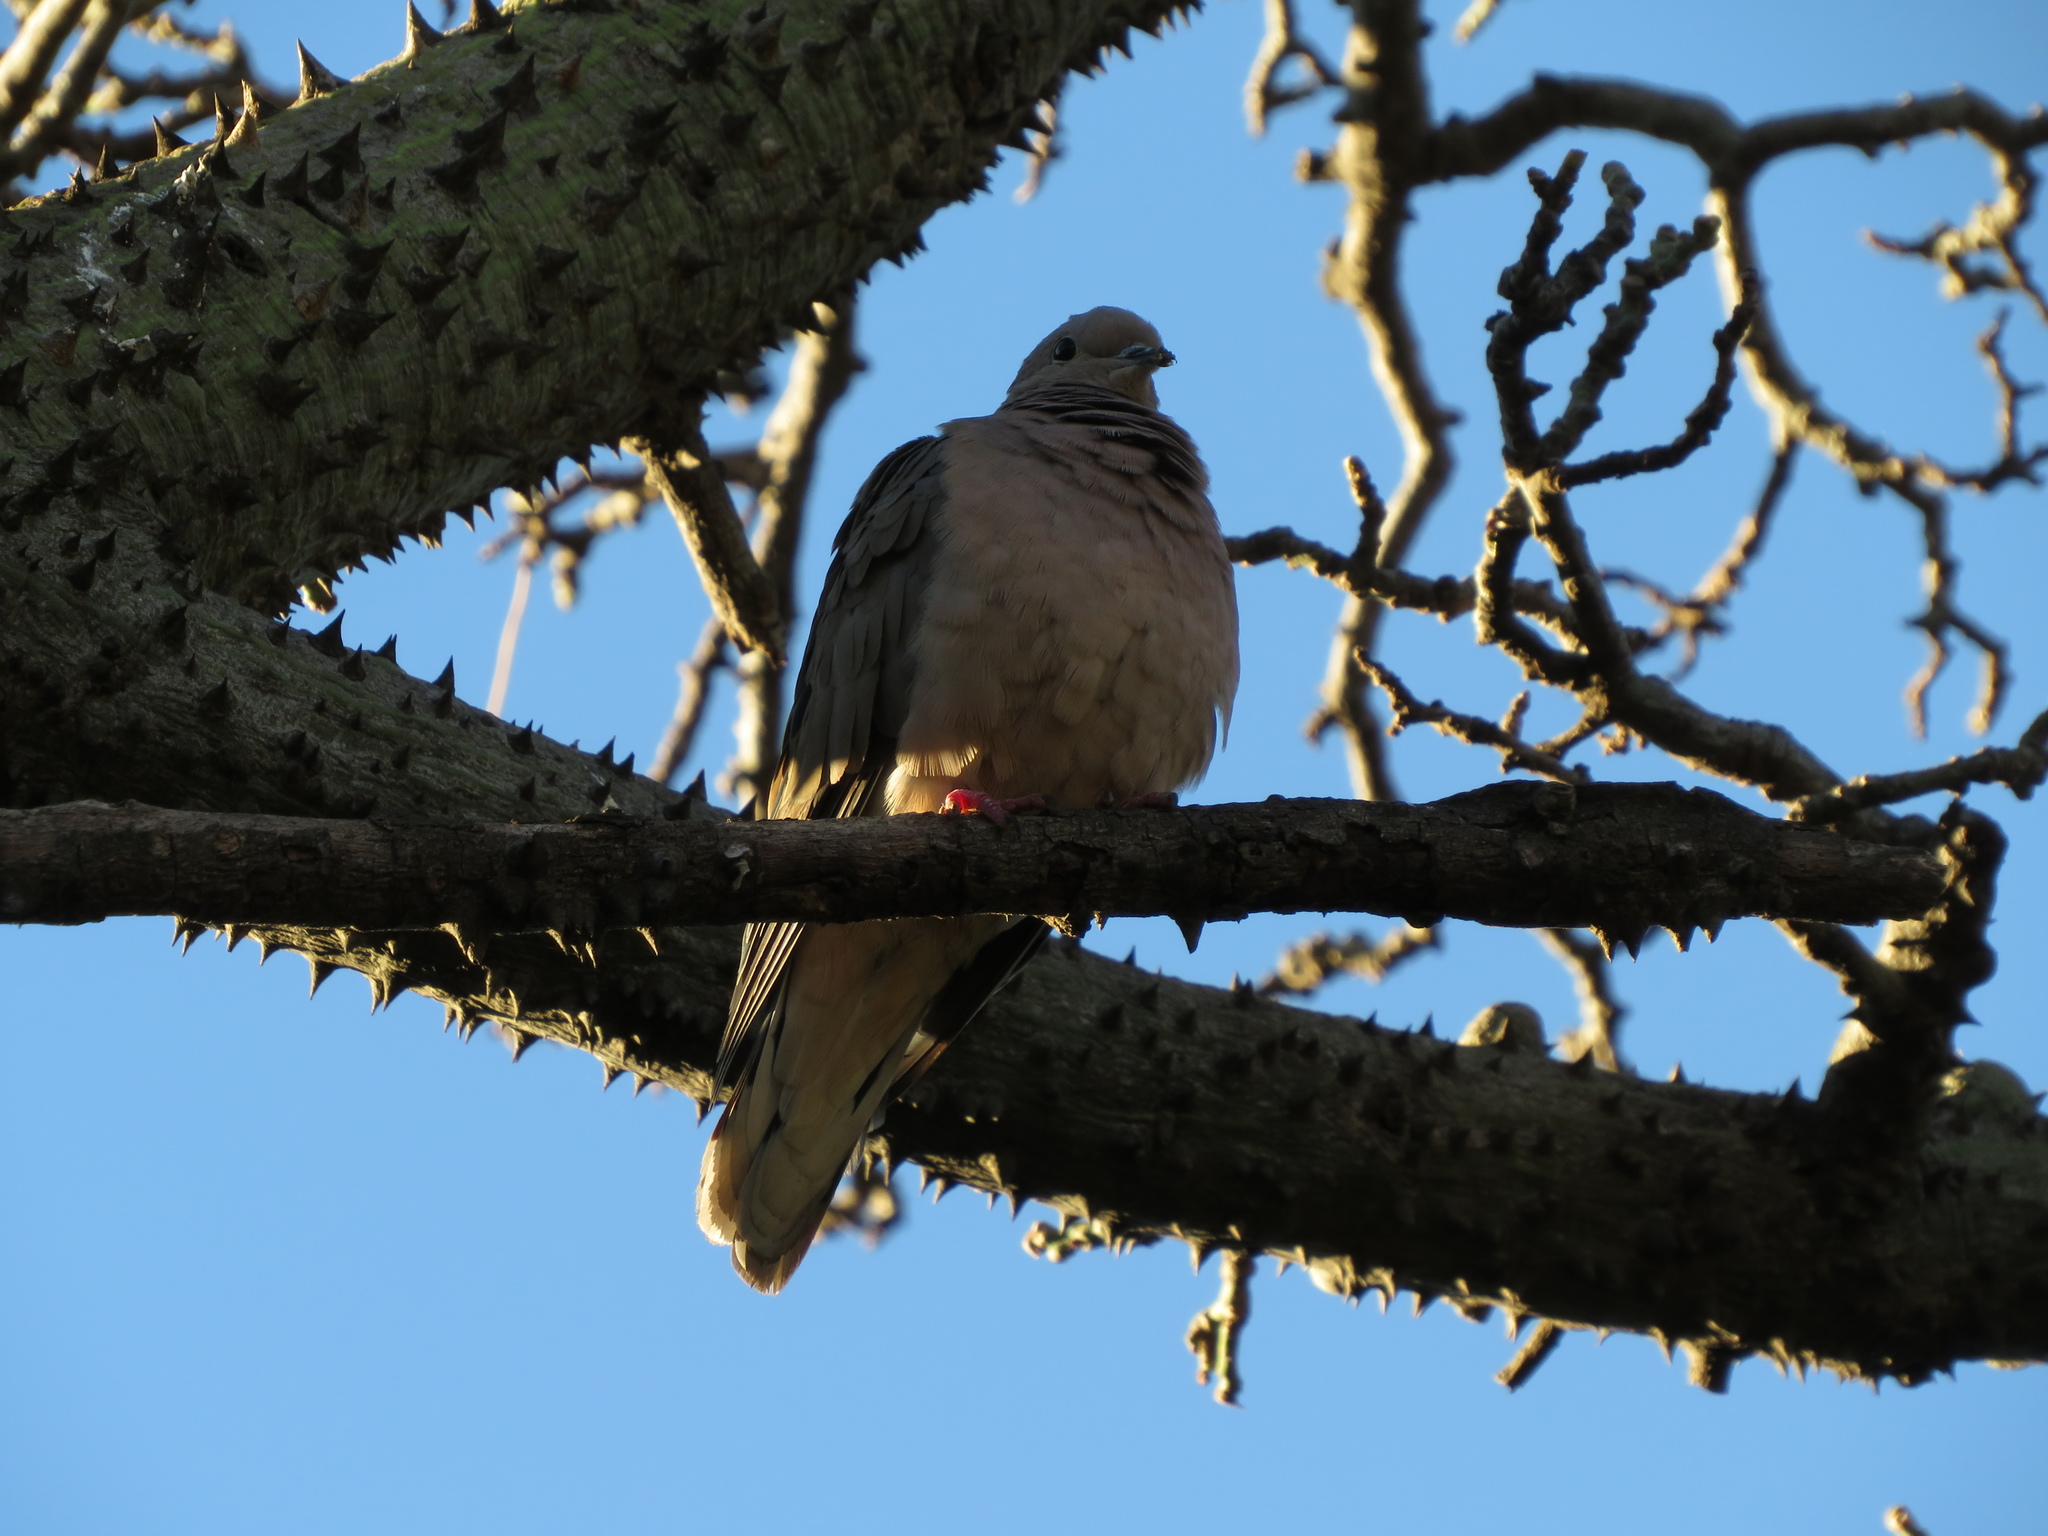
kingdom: Animalia
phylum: Chordata
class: Aves
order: Columbiformes
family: Columbidae
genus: Zenaida
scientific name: Zenaida auriculata
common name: Eared dove
